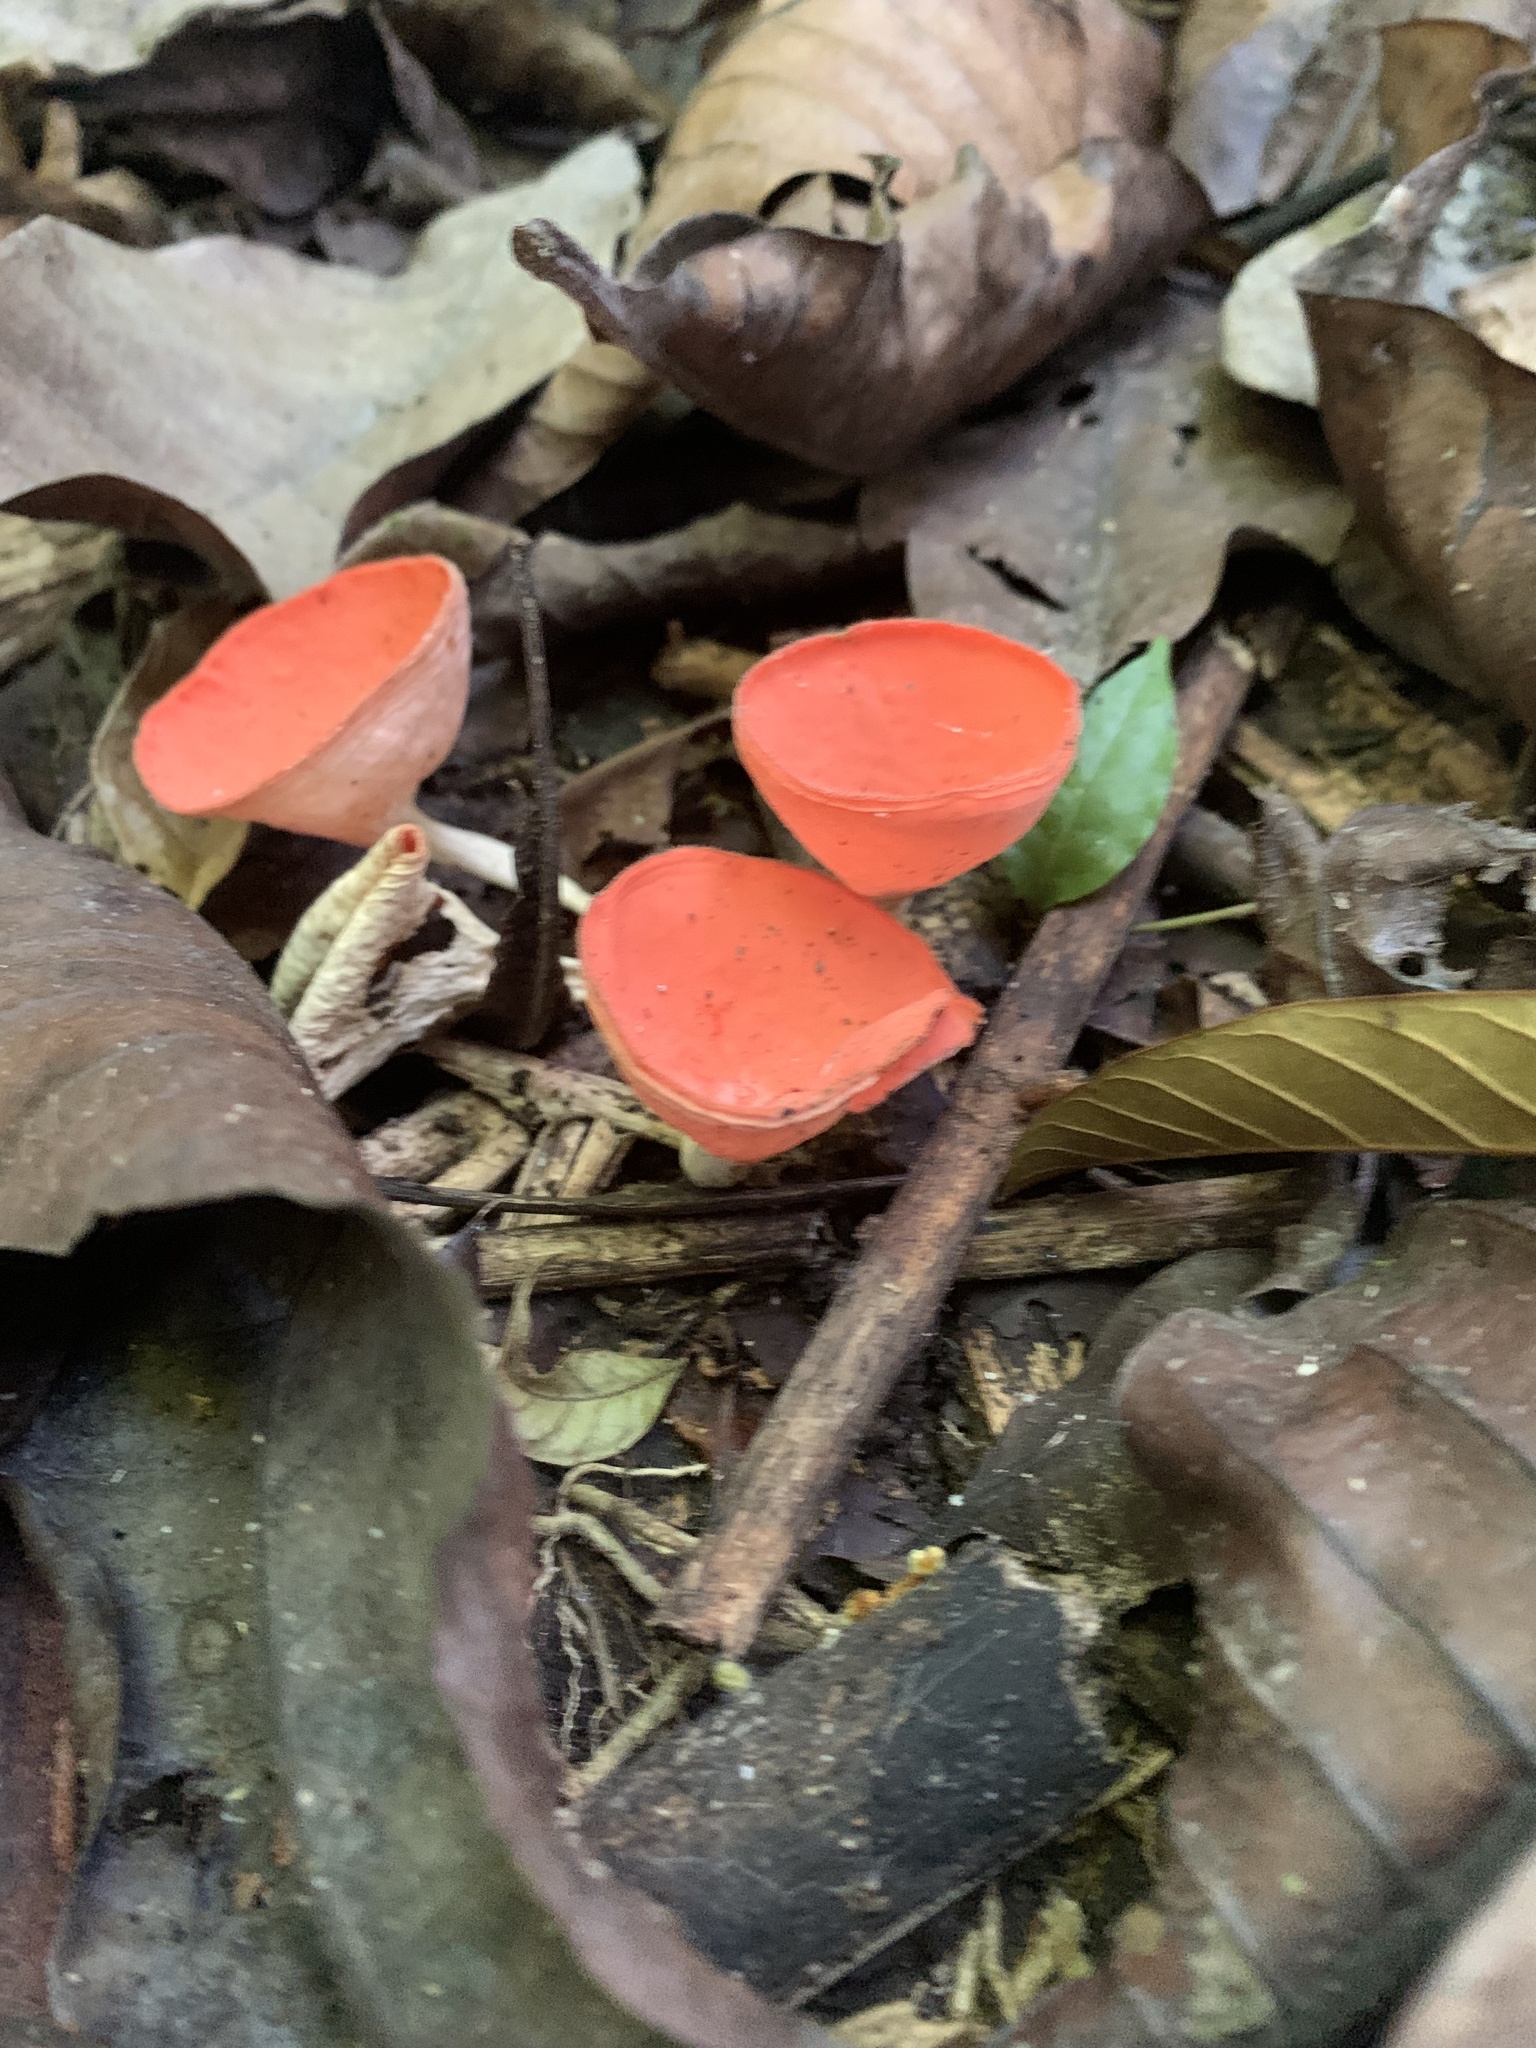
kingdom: Fungi
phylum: Ascomycota
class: Pezizomycetes
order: Pezizales
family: Sarcoscyphaceae
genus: Cookeina
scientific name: Cookeina speciosa
